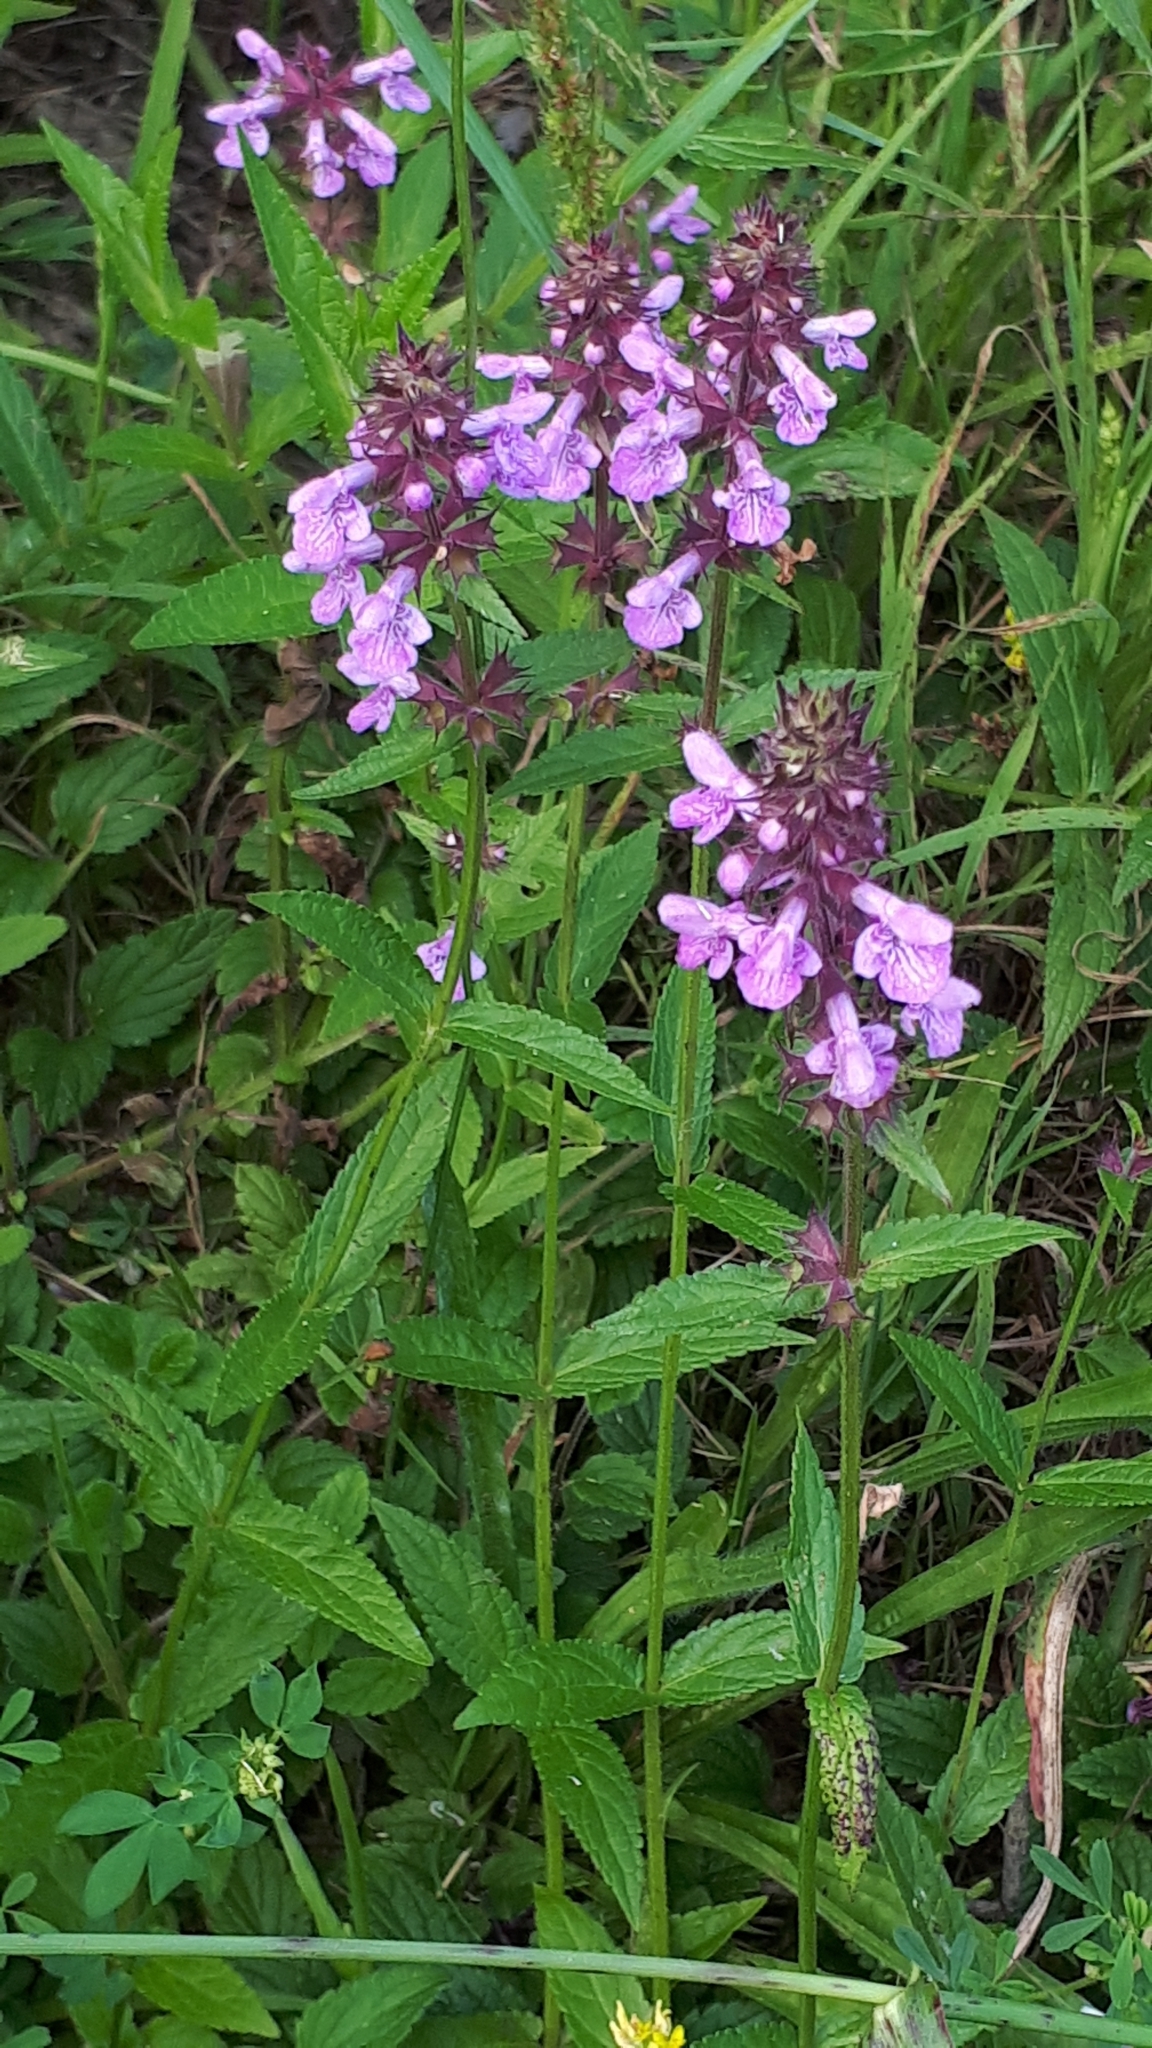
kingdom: Plantae
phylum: Tracheophyta
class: Magnoliopsida
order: Lamiales
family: Lamiaceae
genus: Stachys
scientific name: Stachys palustris
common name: Marsh woundwort
